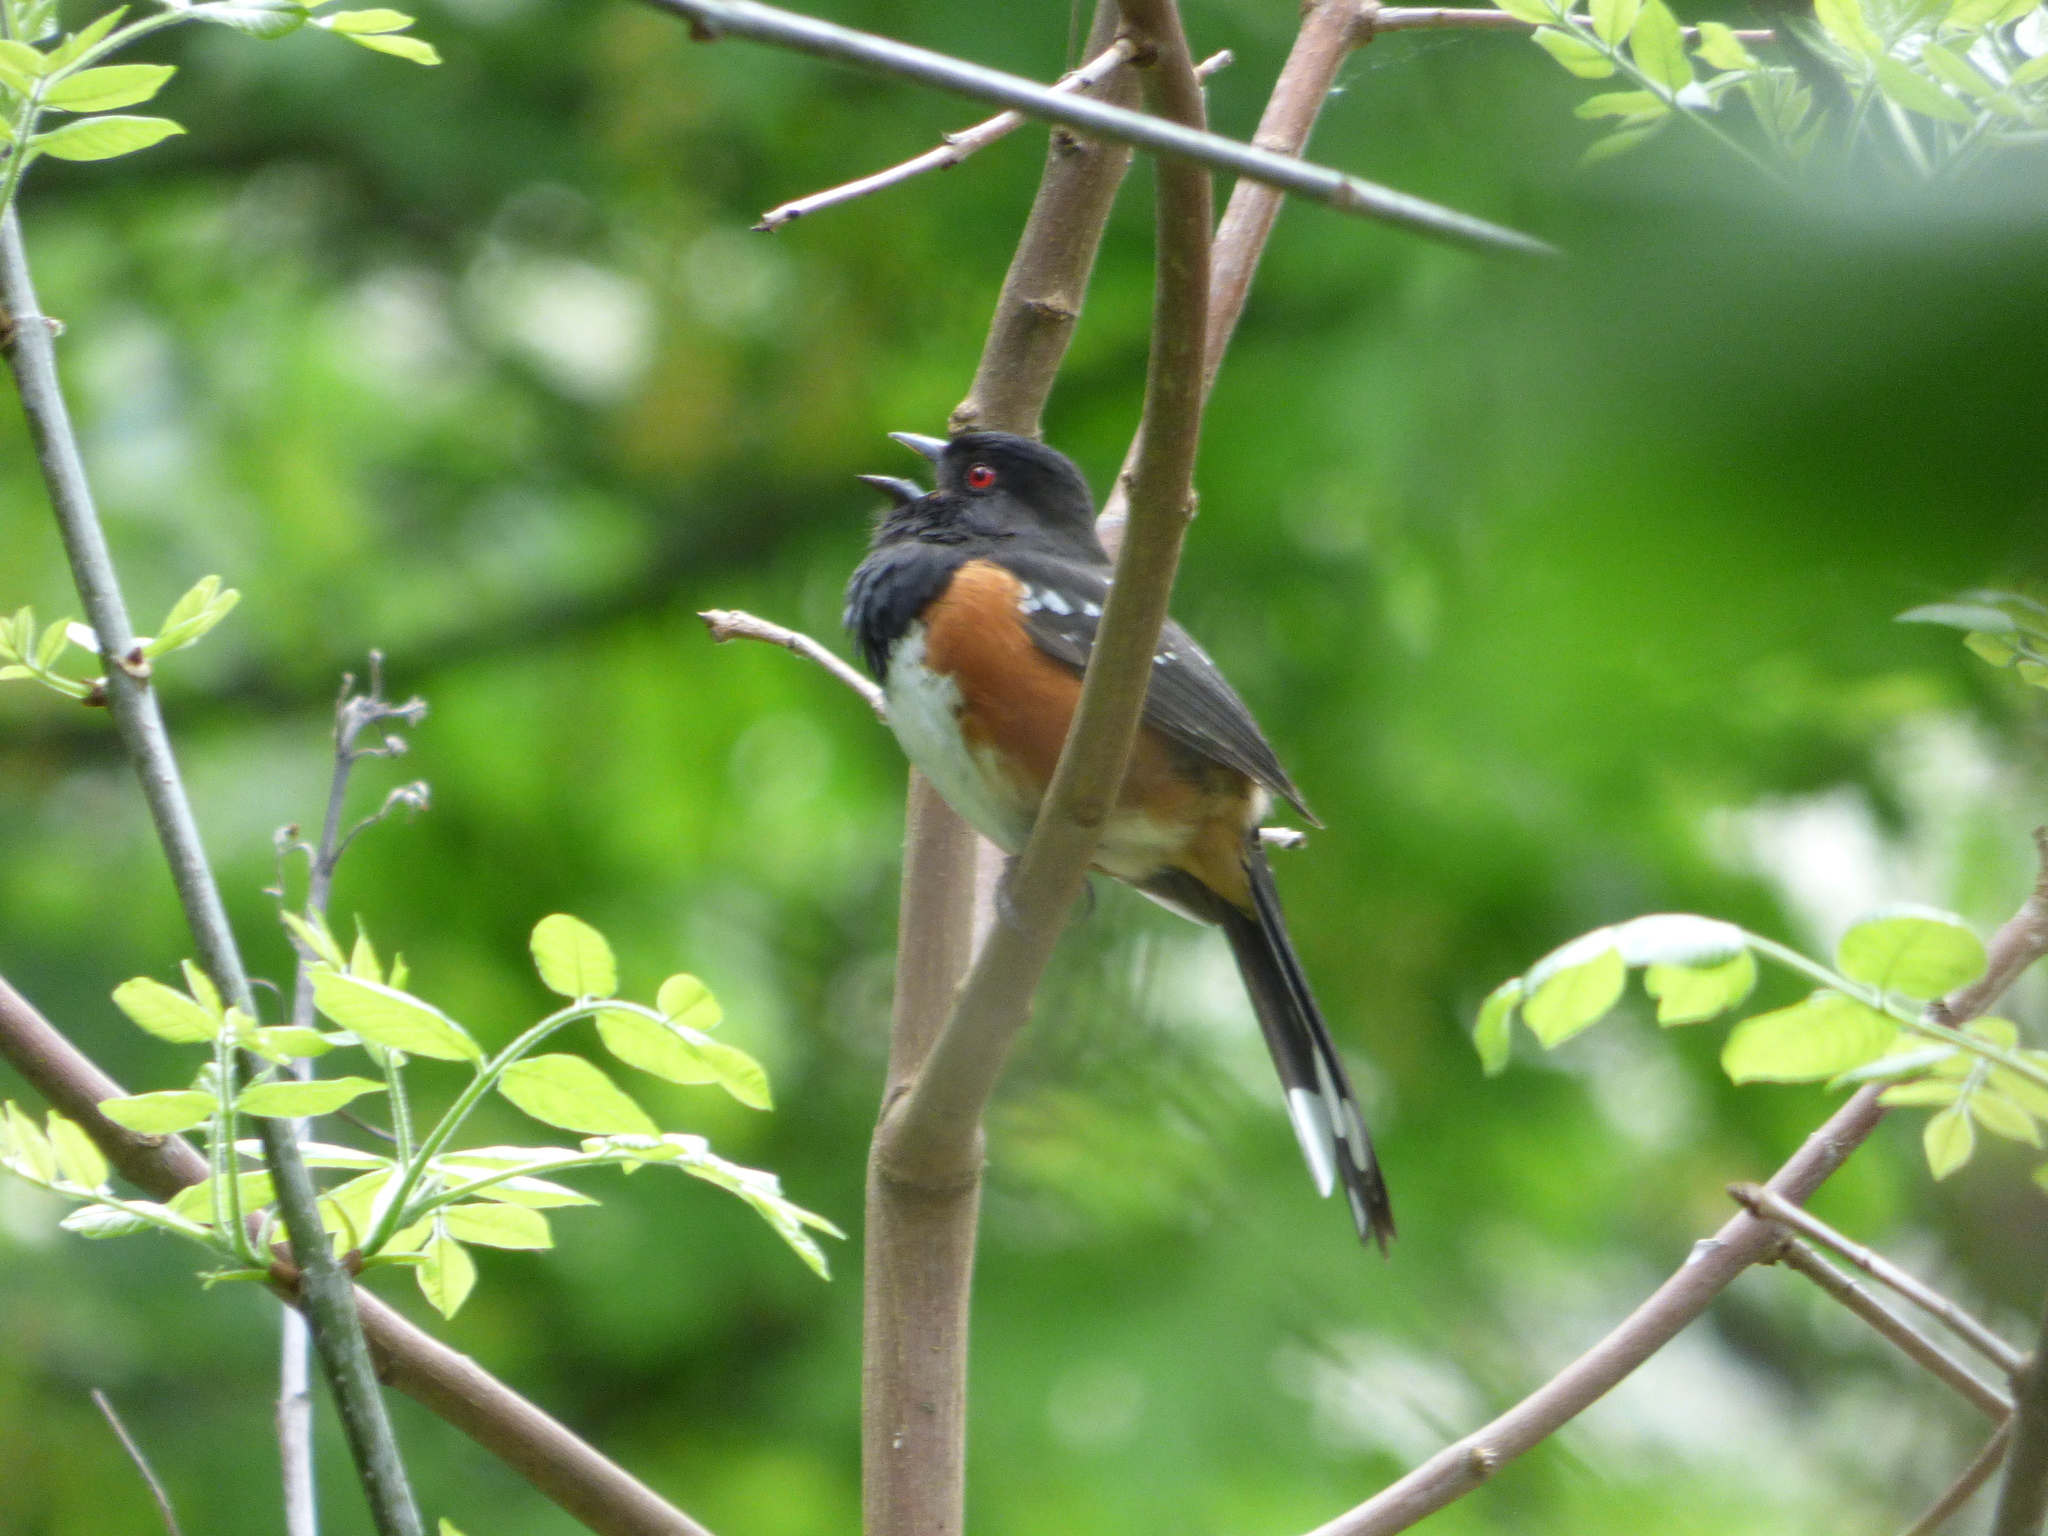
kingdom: Animalia
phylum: Chordata
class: Aves
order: Passeriformes
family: Passerellidae
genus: Pipilo
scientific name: Pipilo maculatus
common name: Spotted towhee
